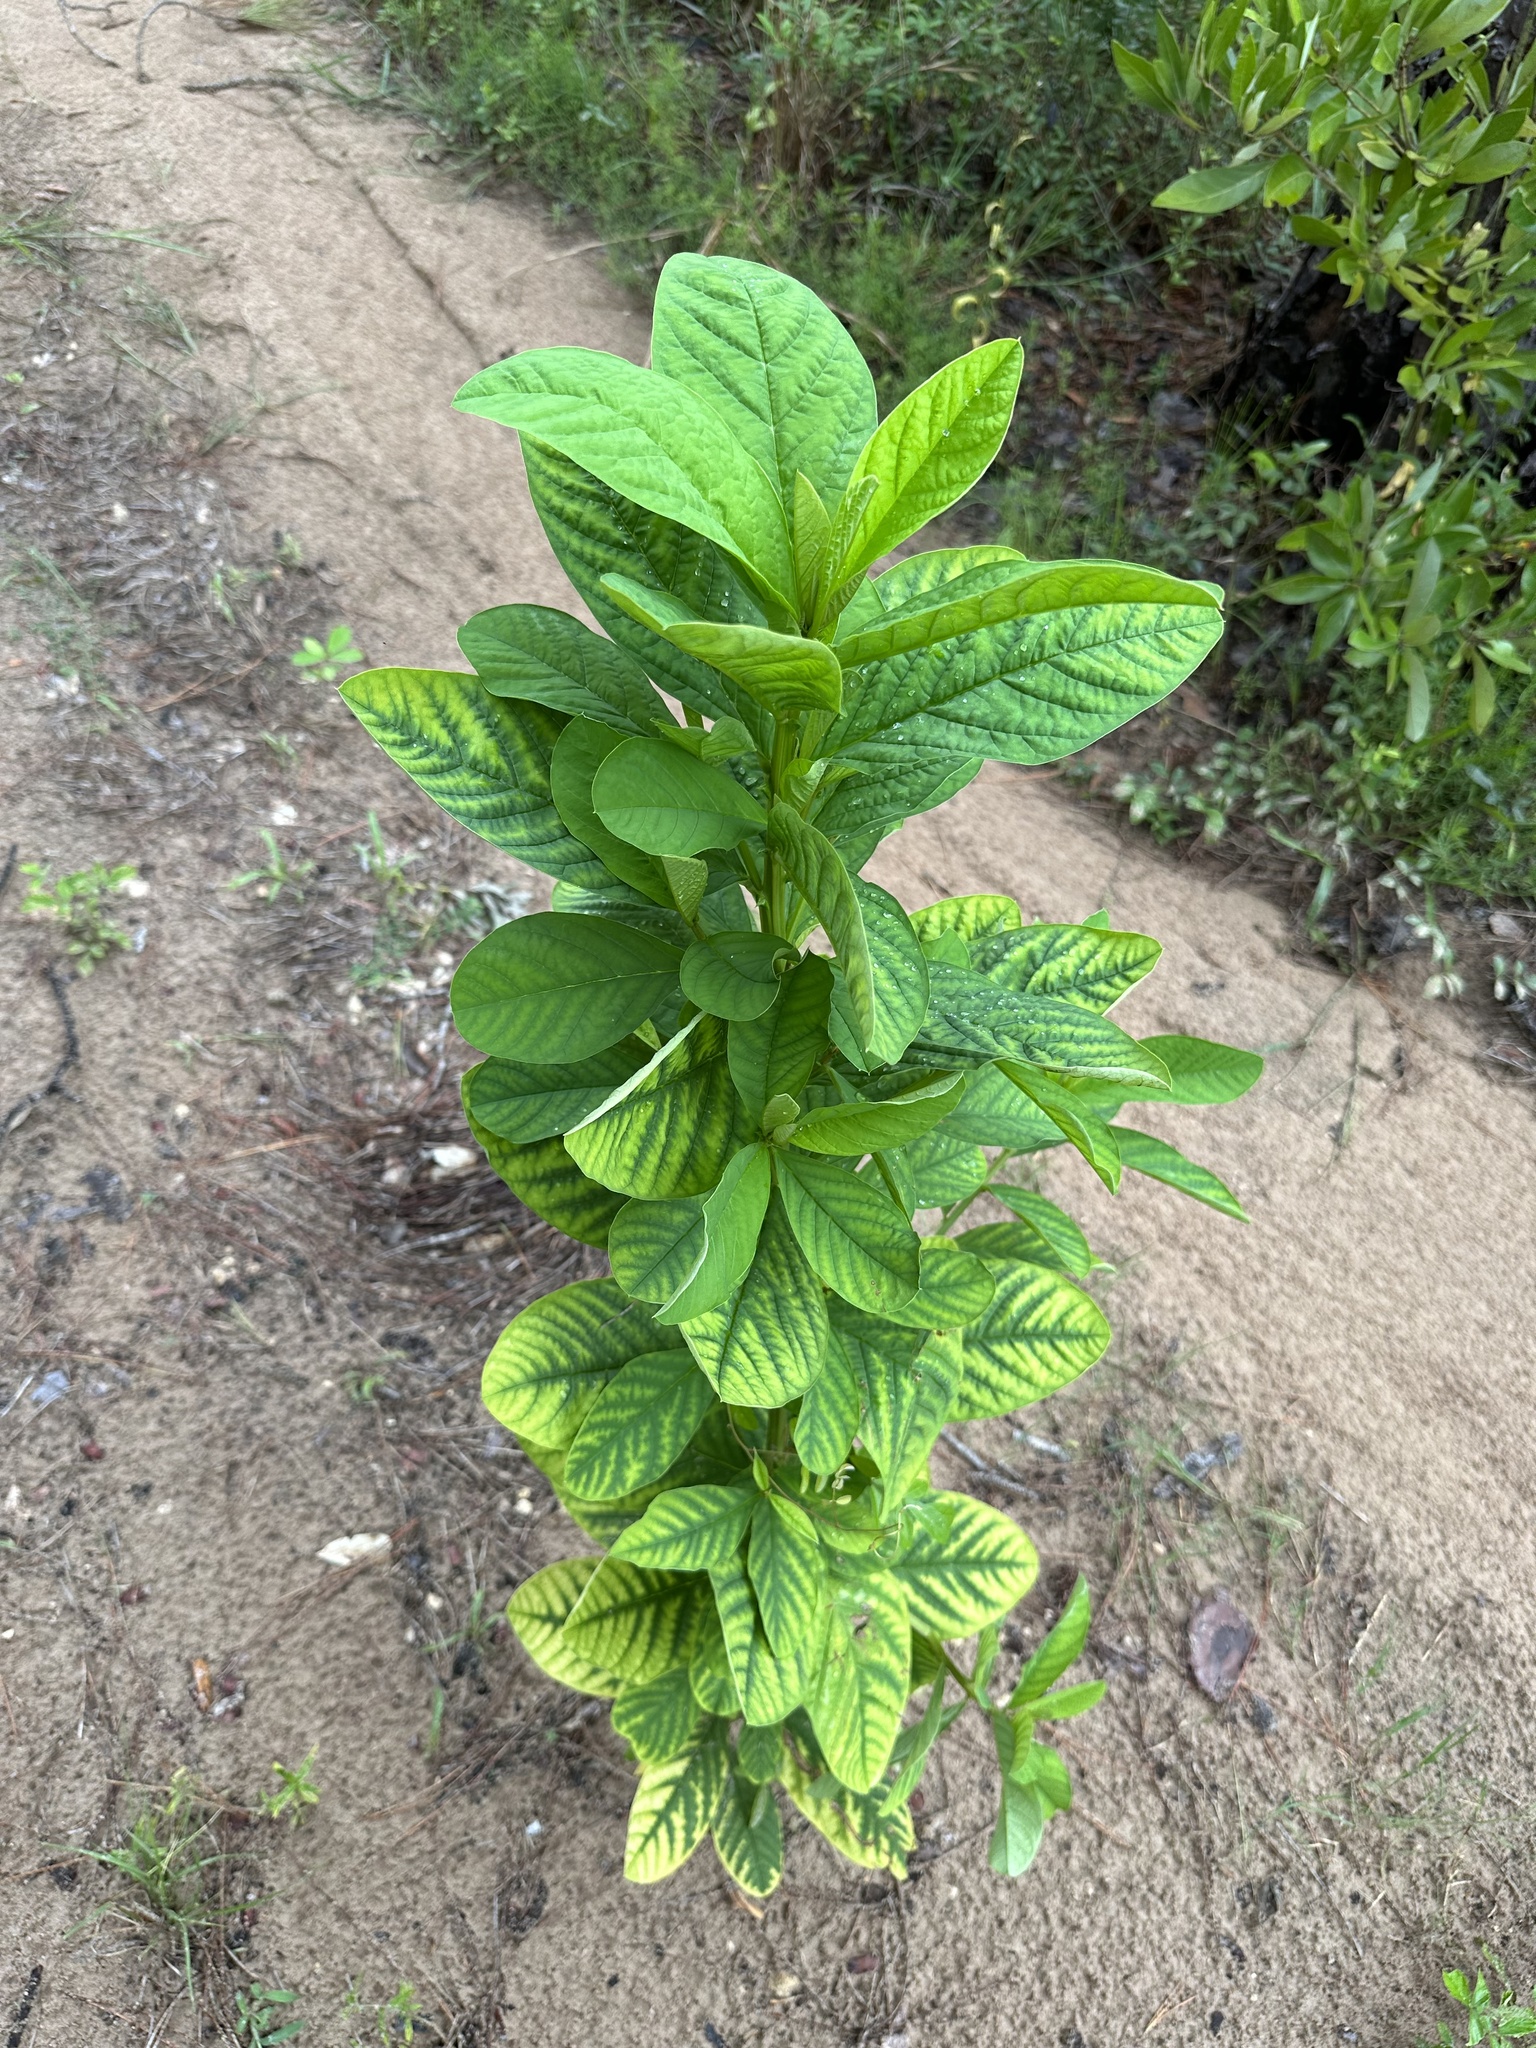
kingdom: Plantae
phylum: Tracheophyta
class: Magnoliopsida
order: Fabales
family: Fabaceae
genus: Crotalaria
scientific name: Crotalaria spectabilis
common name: Showy rattlebox
